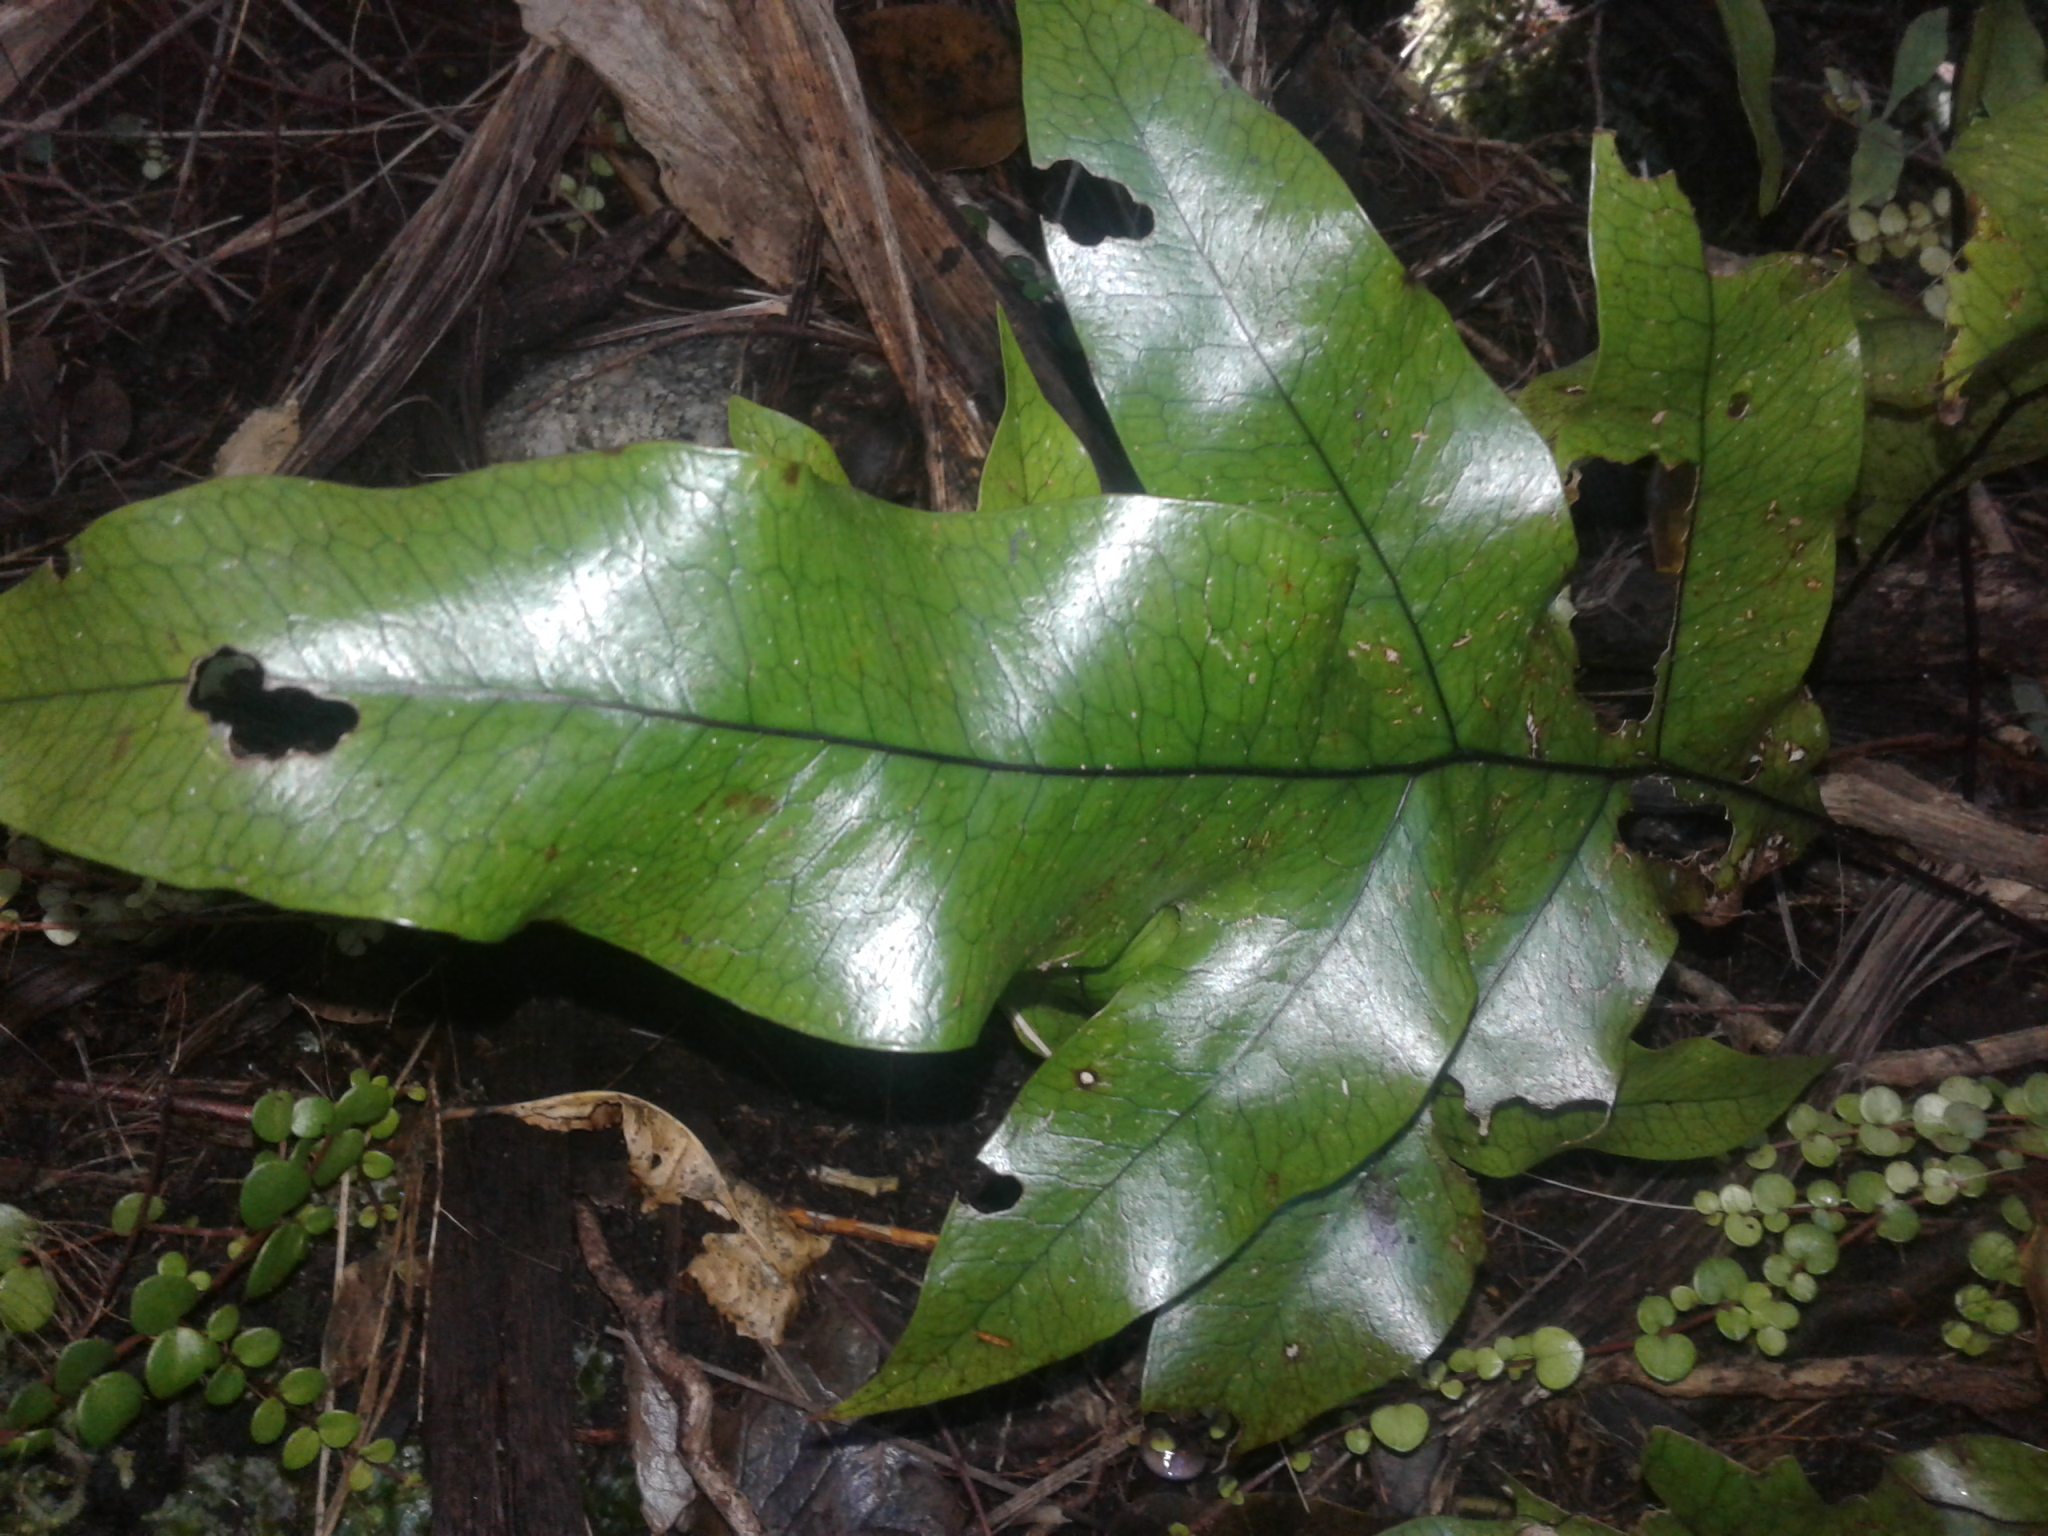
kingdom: Plantae
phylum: Tracheophyta
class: Polypodiopsida
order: Polypodiales
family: Polypodiaceae
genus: Lecanopteris
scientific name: Lecanopteris pustulata
